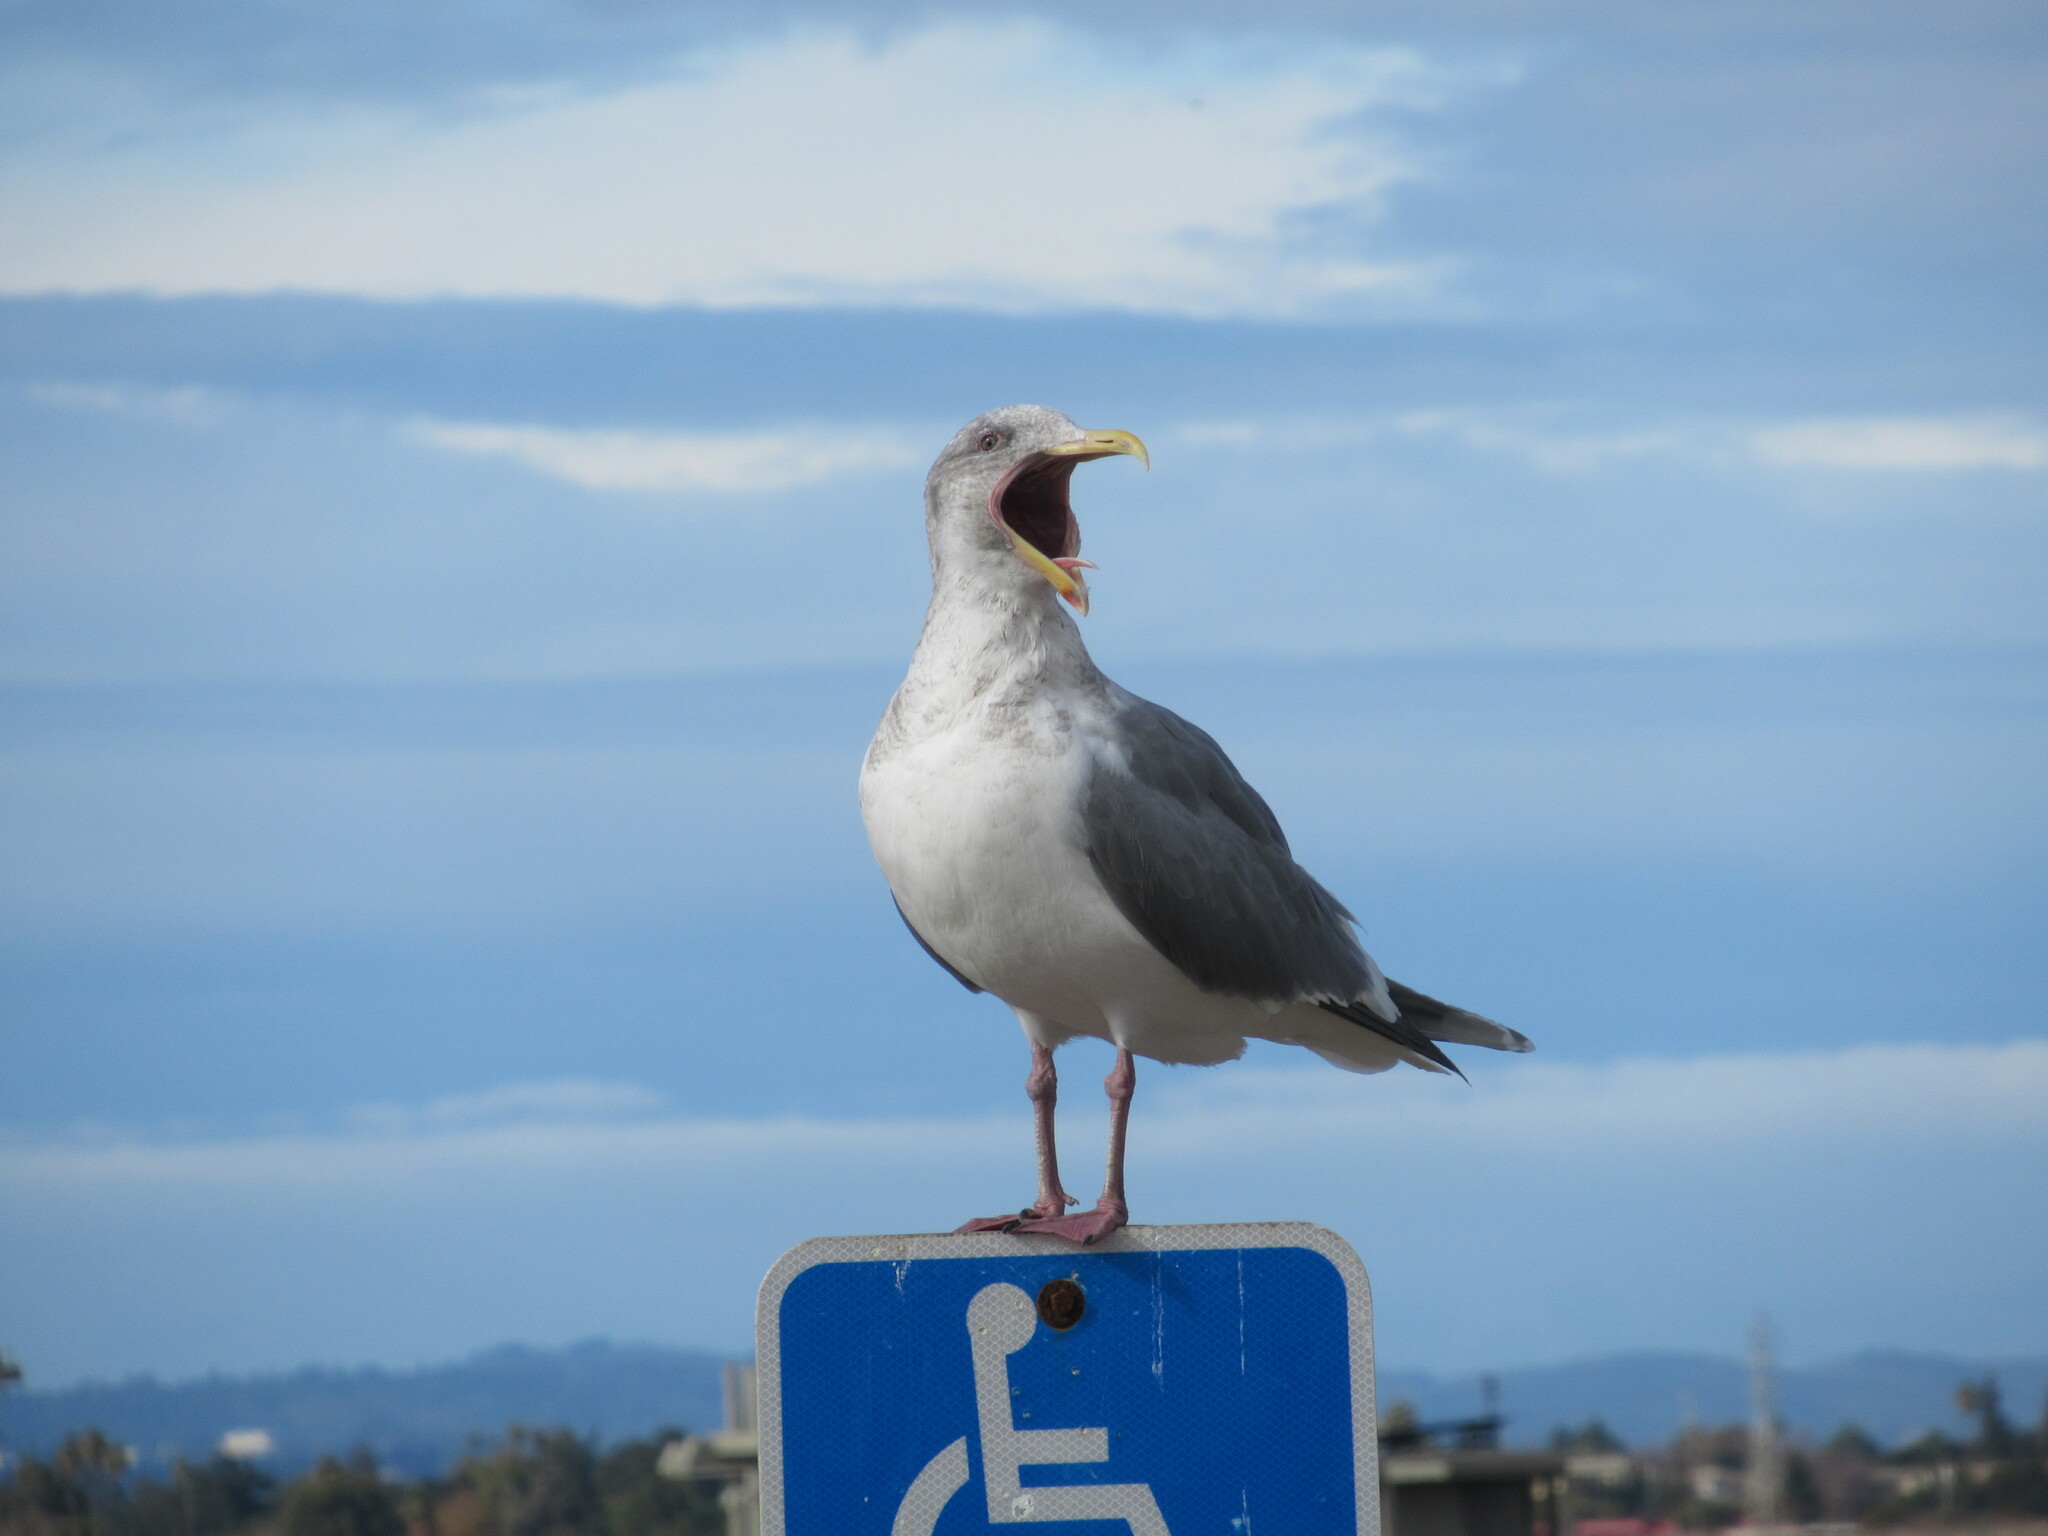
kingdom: Animalia
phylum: Chordata
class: Aves
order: Charadriiformes
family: Laridae
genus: Larus
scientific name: Larus
